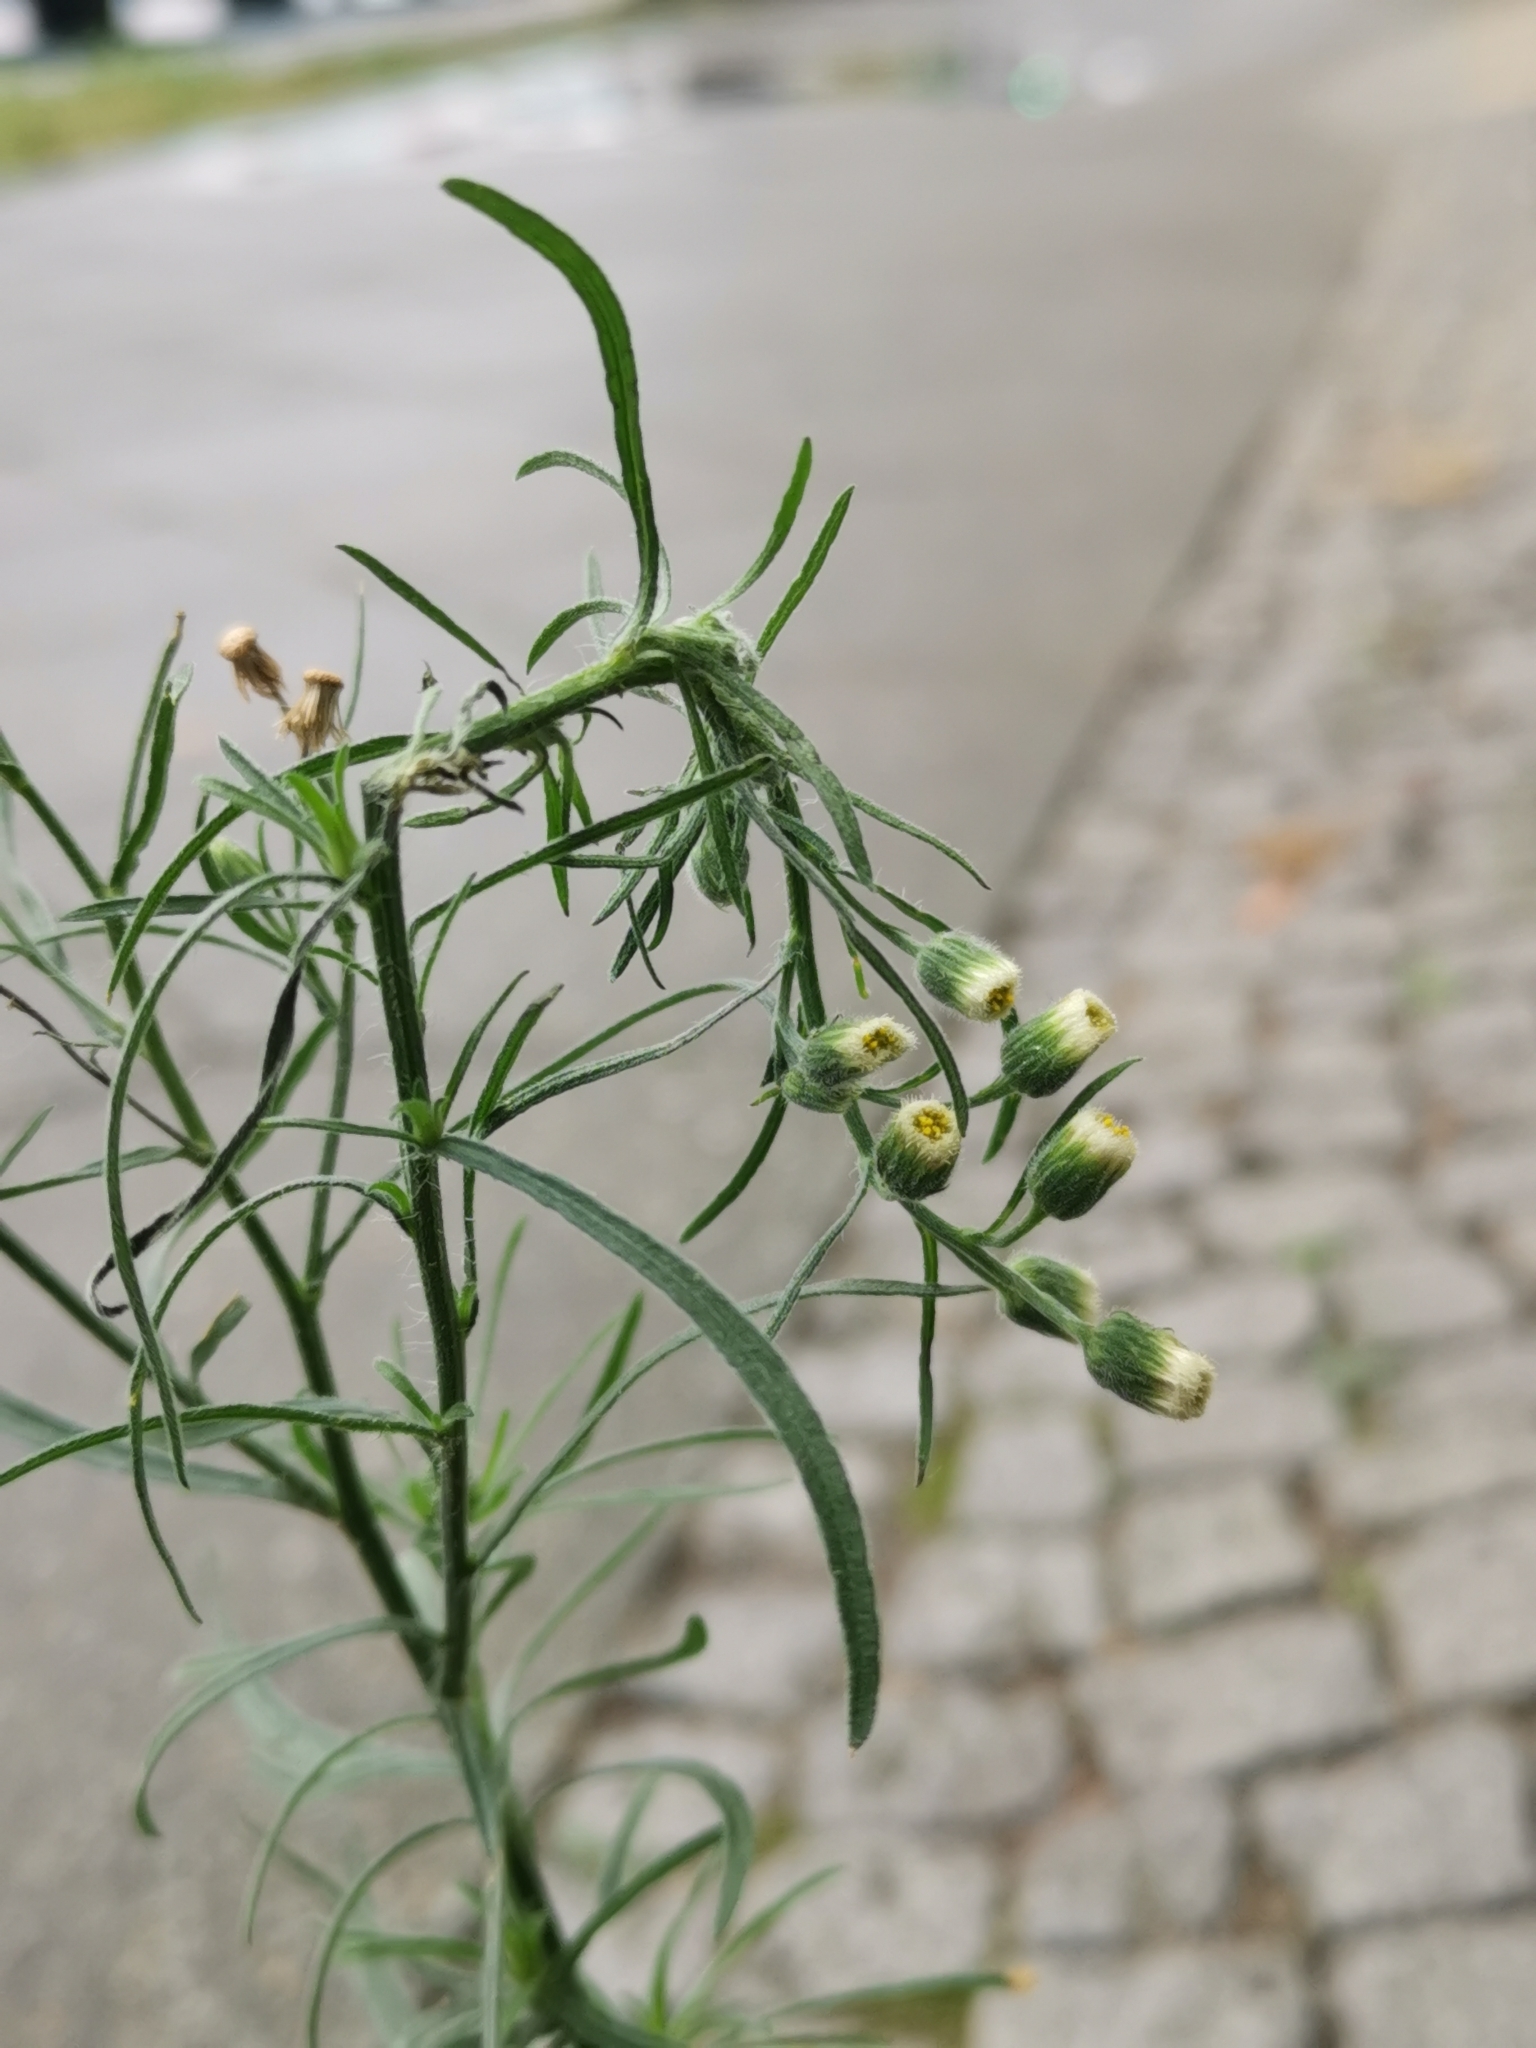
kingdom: Plantae
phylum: Tracheophyta
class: Magnoliopsida
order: Asterales
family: Asteraceae
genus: Erigeron
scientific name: Erigeron bonariensis
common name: Argentine fleabane
